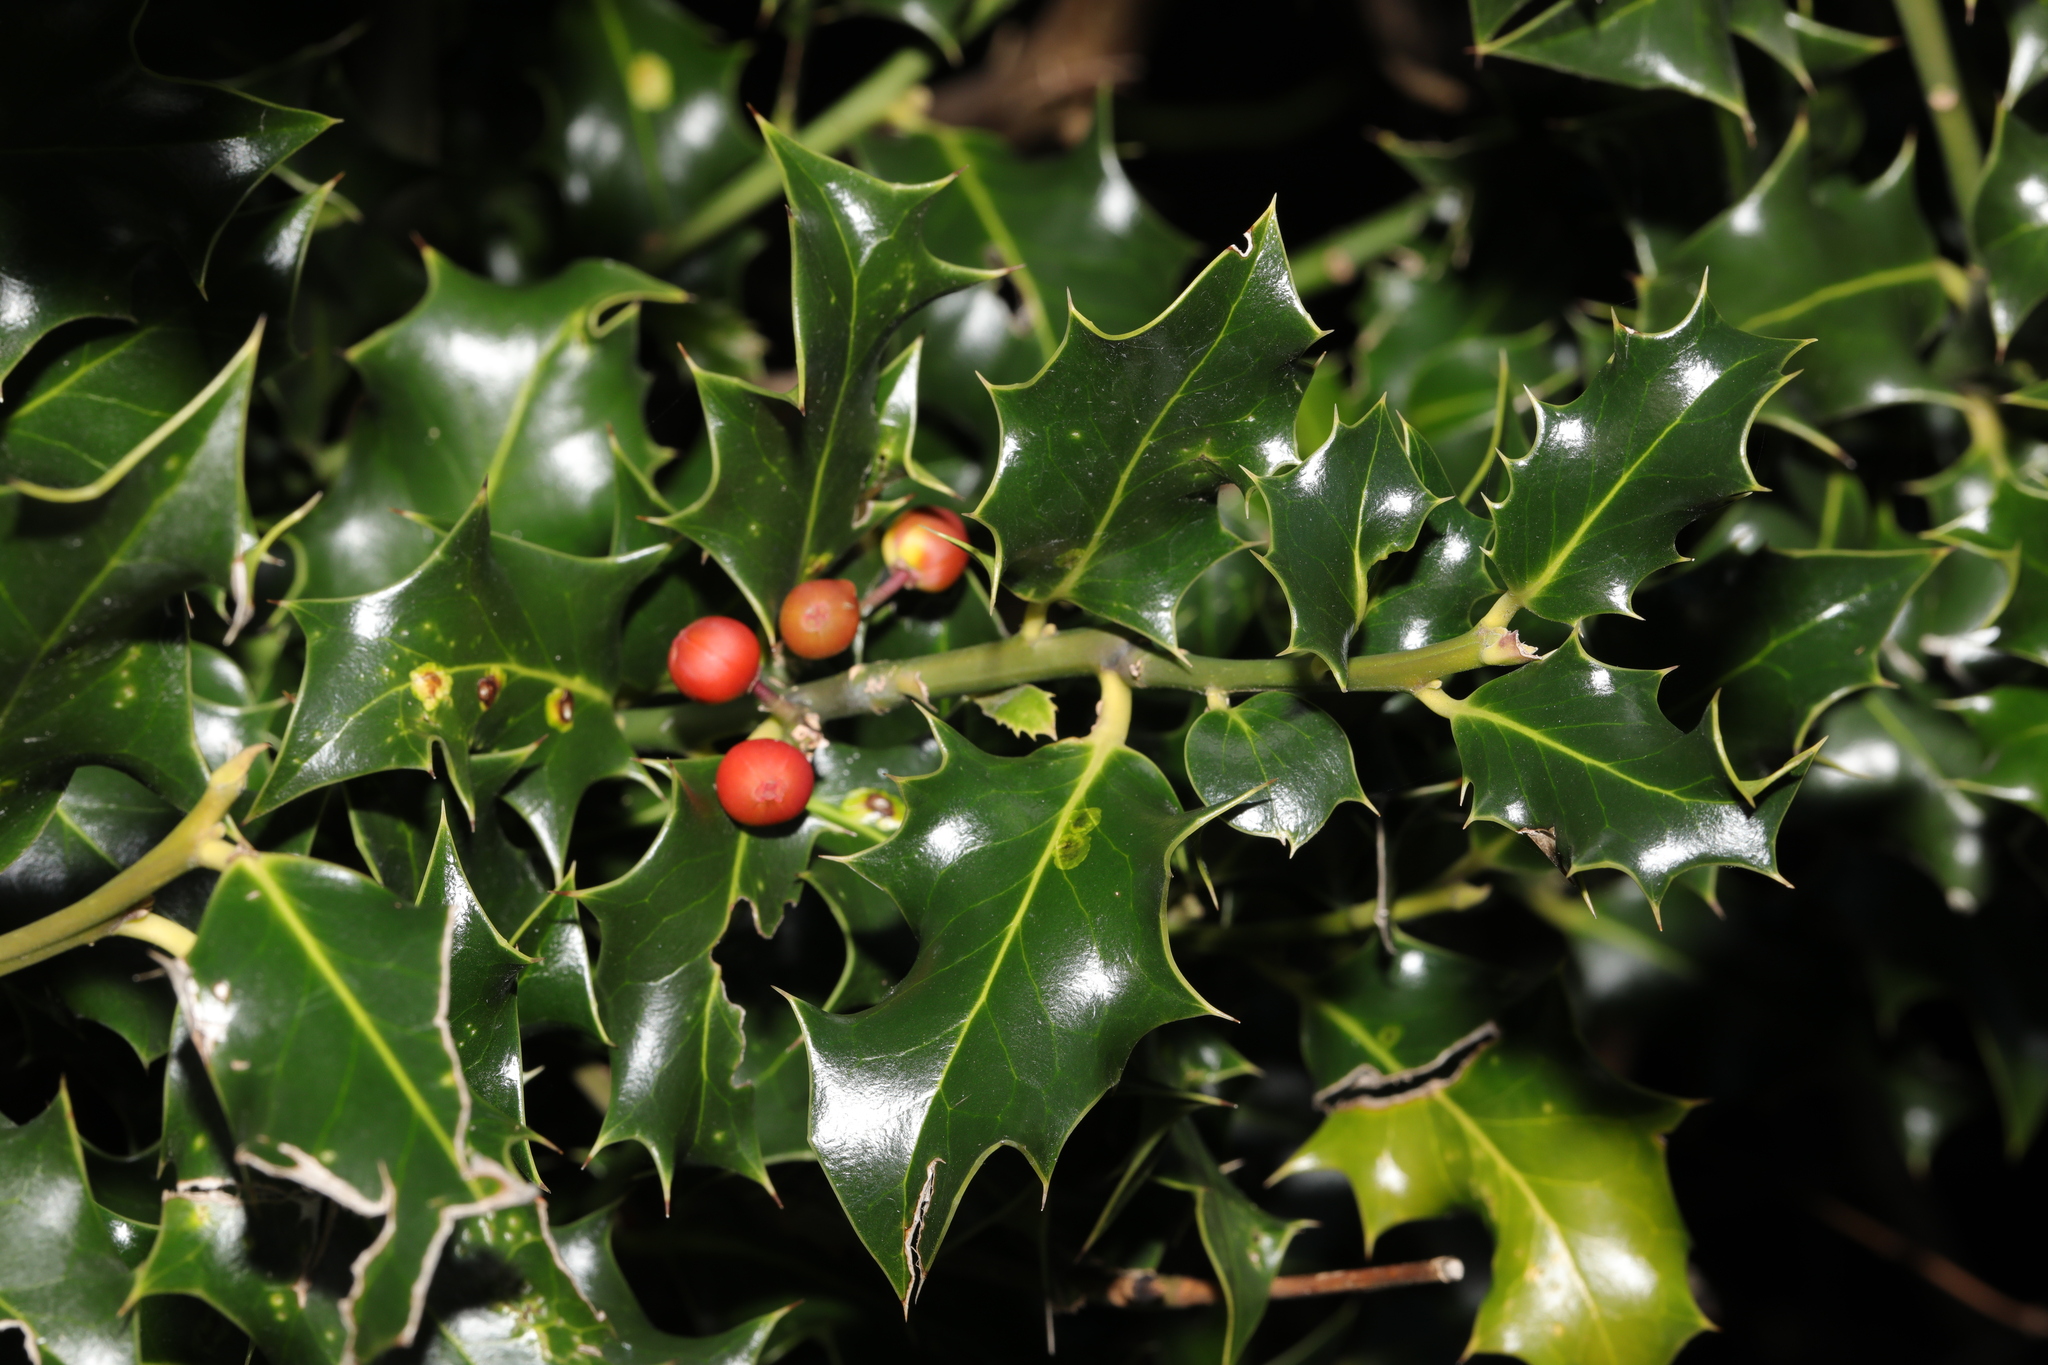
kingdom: Plantae
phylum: Tracheophyta
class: Magnoliopsida
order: Aquifoliales
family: Aquifoliaceae
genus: Ilex
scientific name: Ilex aquifolium
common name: English holly
